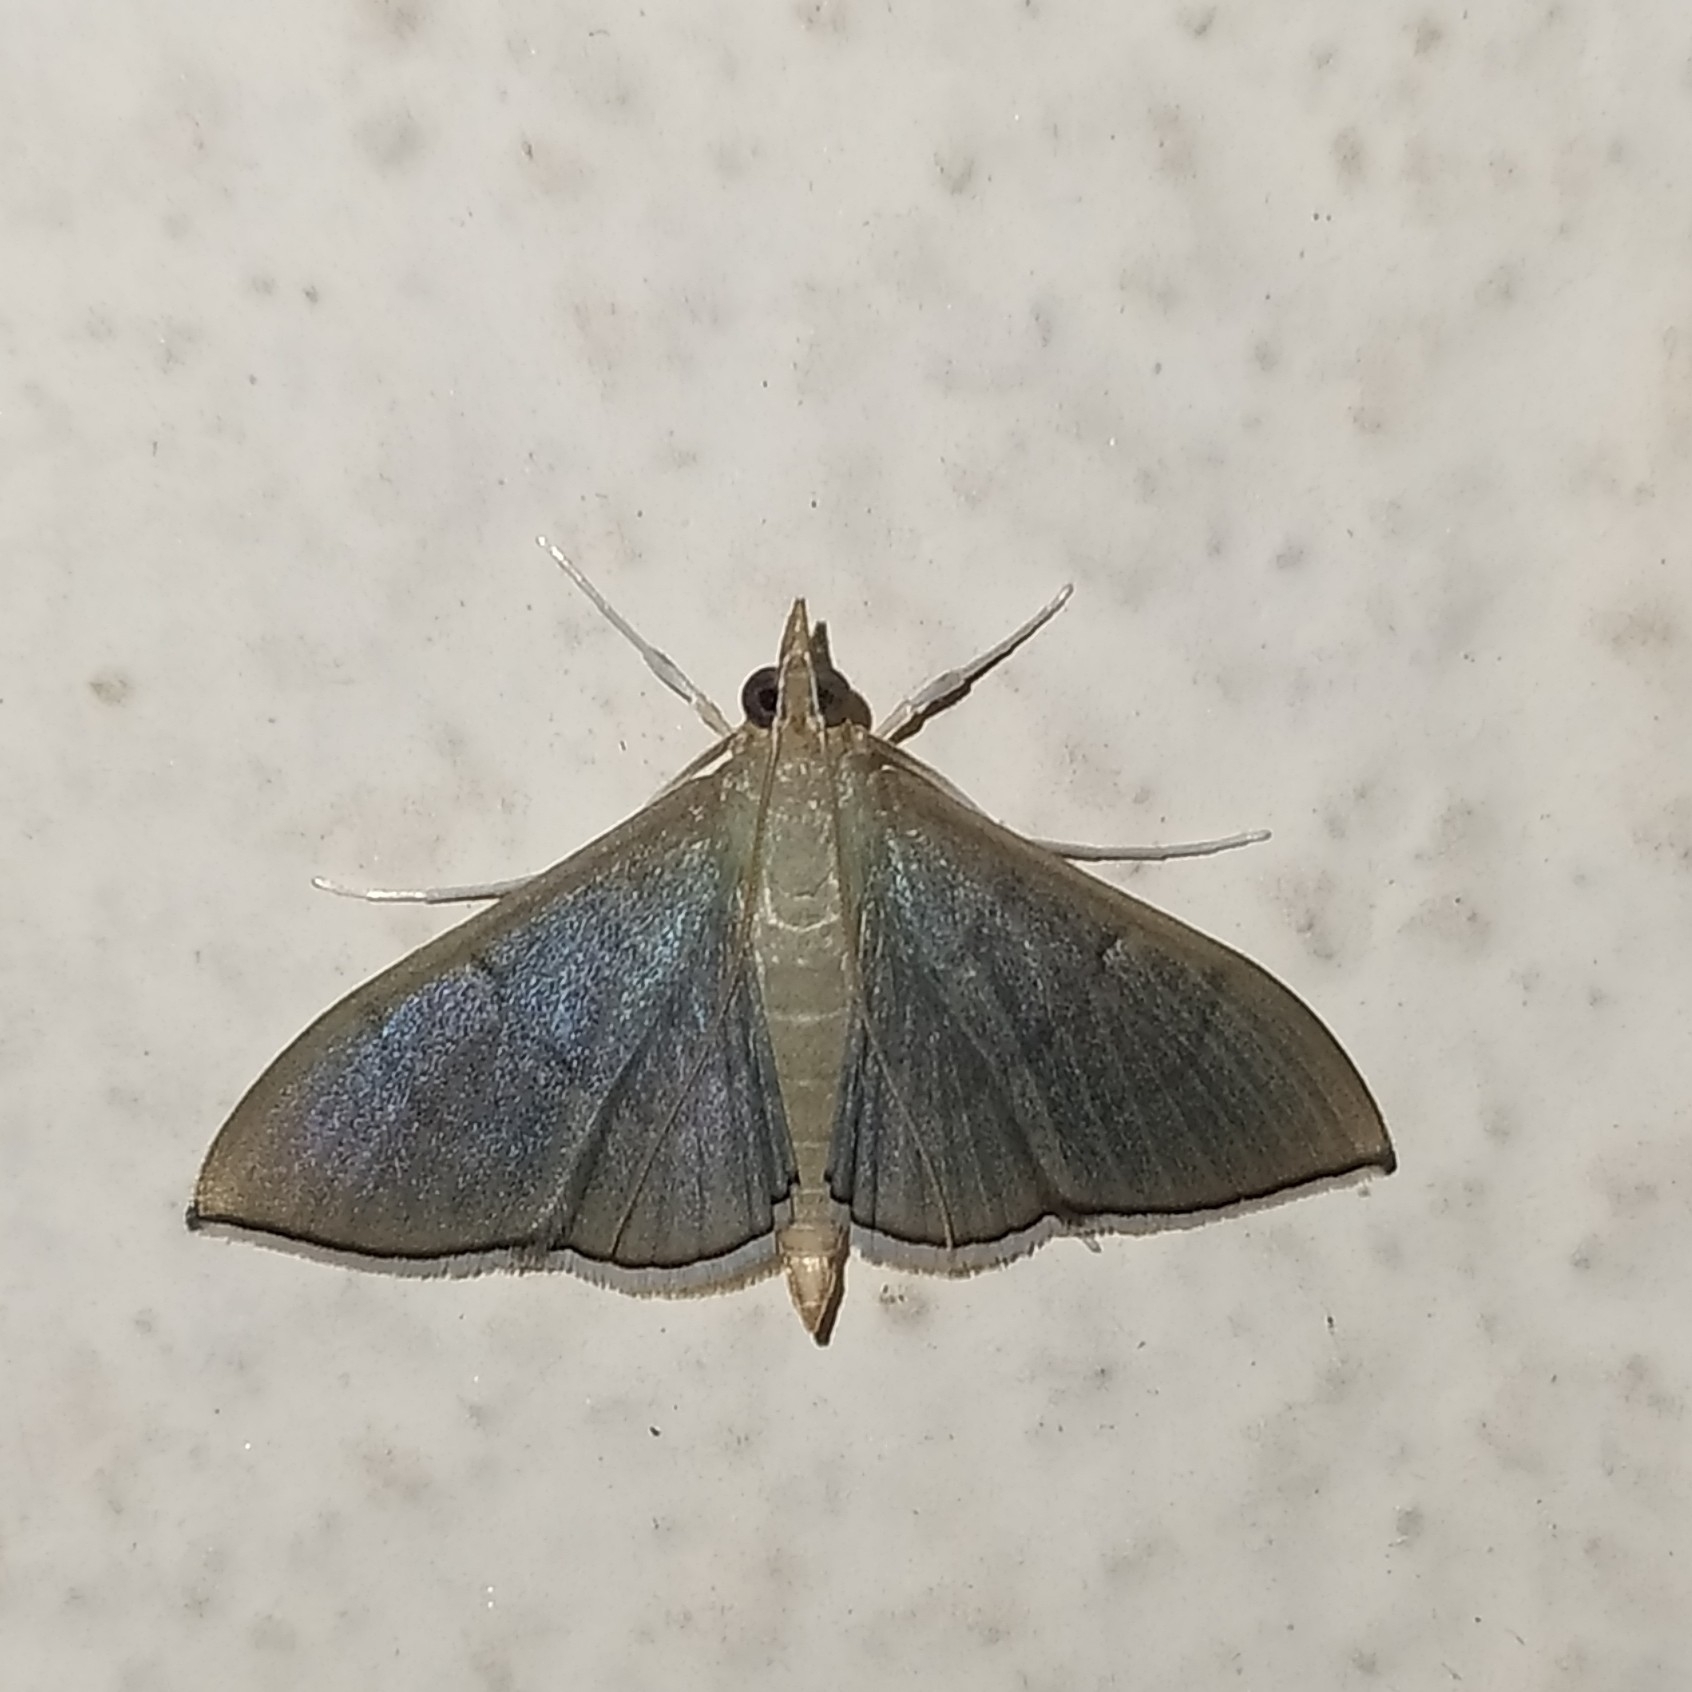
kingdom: Animalia
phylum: Arthropoda
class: Insecta
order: Lepidoptera
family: Crambidae
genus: Lamprophaia
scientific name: Lamprophaia ablactalis
